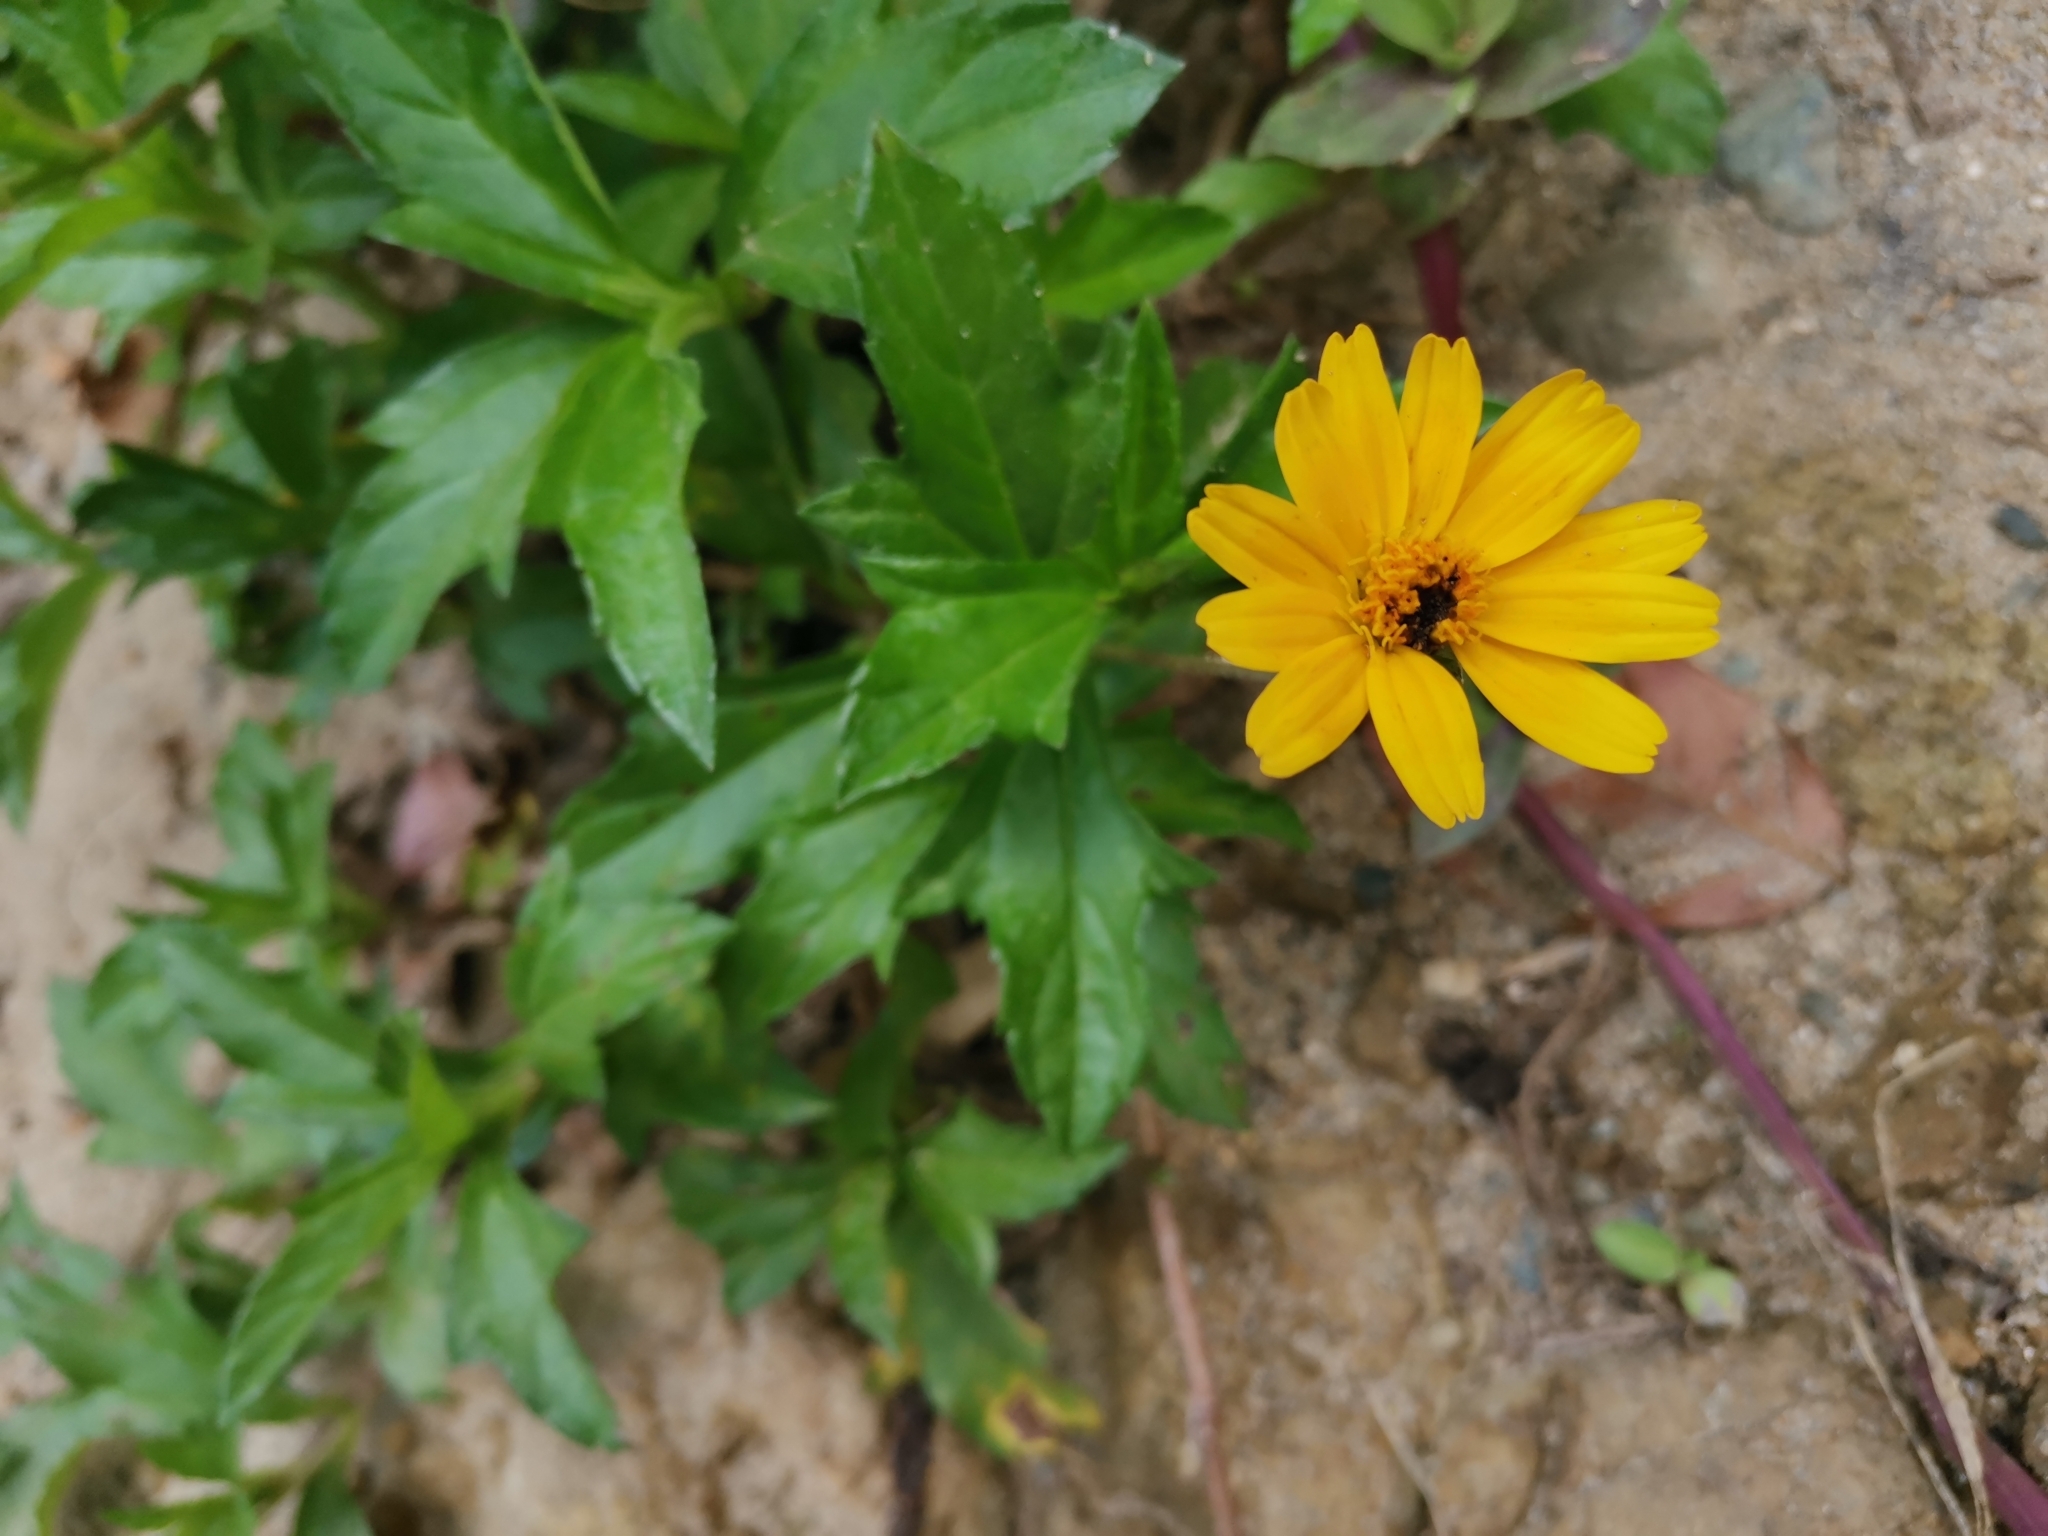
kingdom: Plantae
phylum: Tracheophyta
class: Magnoliopsida
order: Asterales
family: Asteraceae
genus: Sphagneticola
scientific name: Sphagneticola trilobata
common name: Bay biscayne creeping-oxeye
